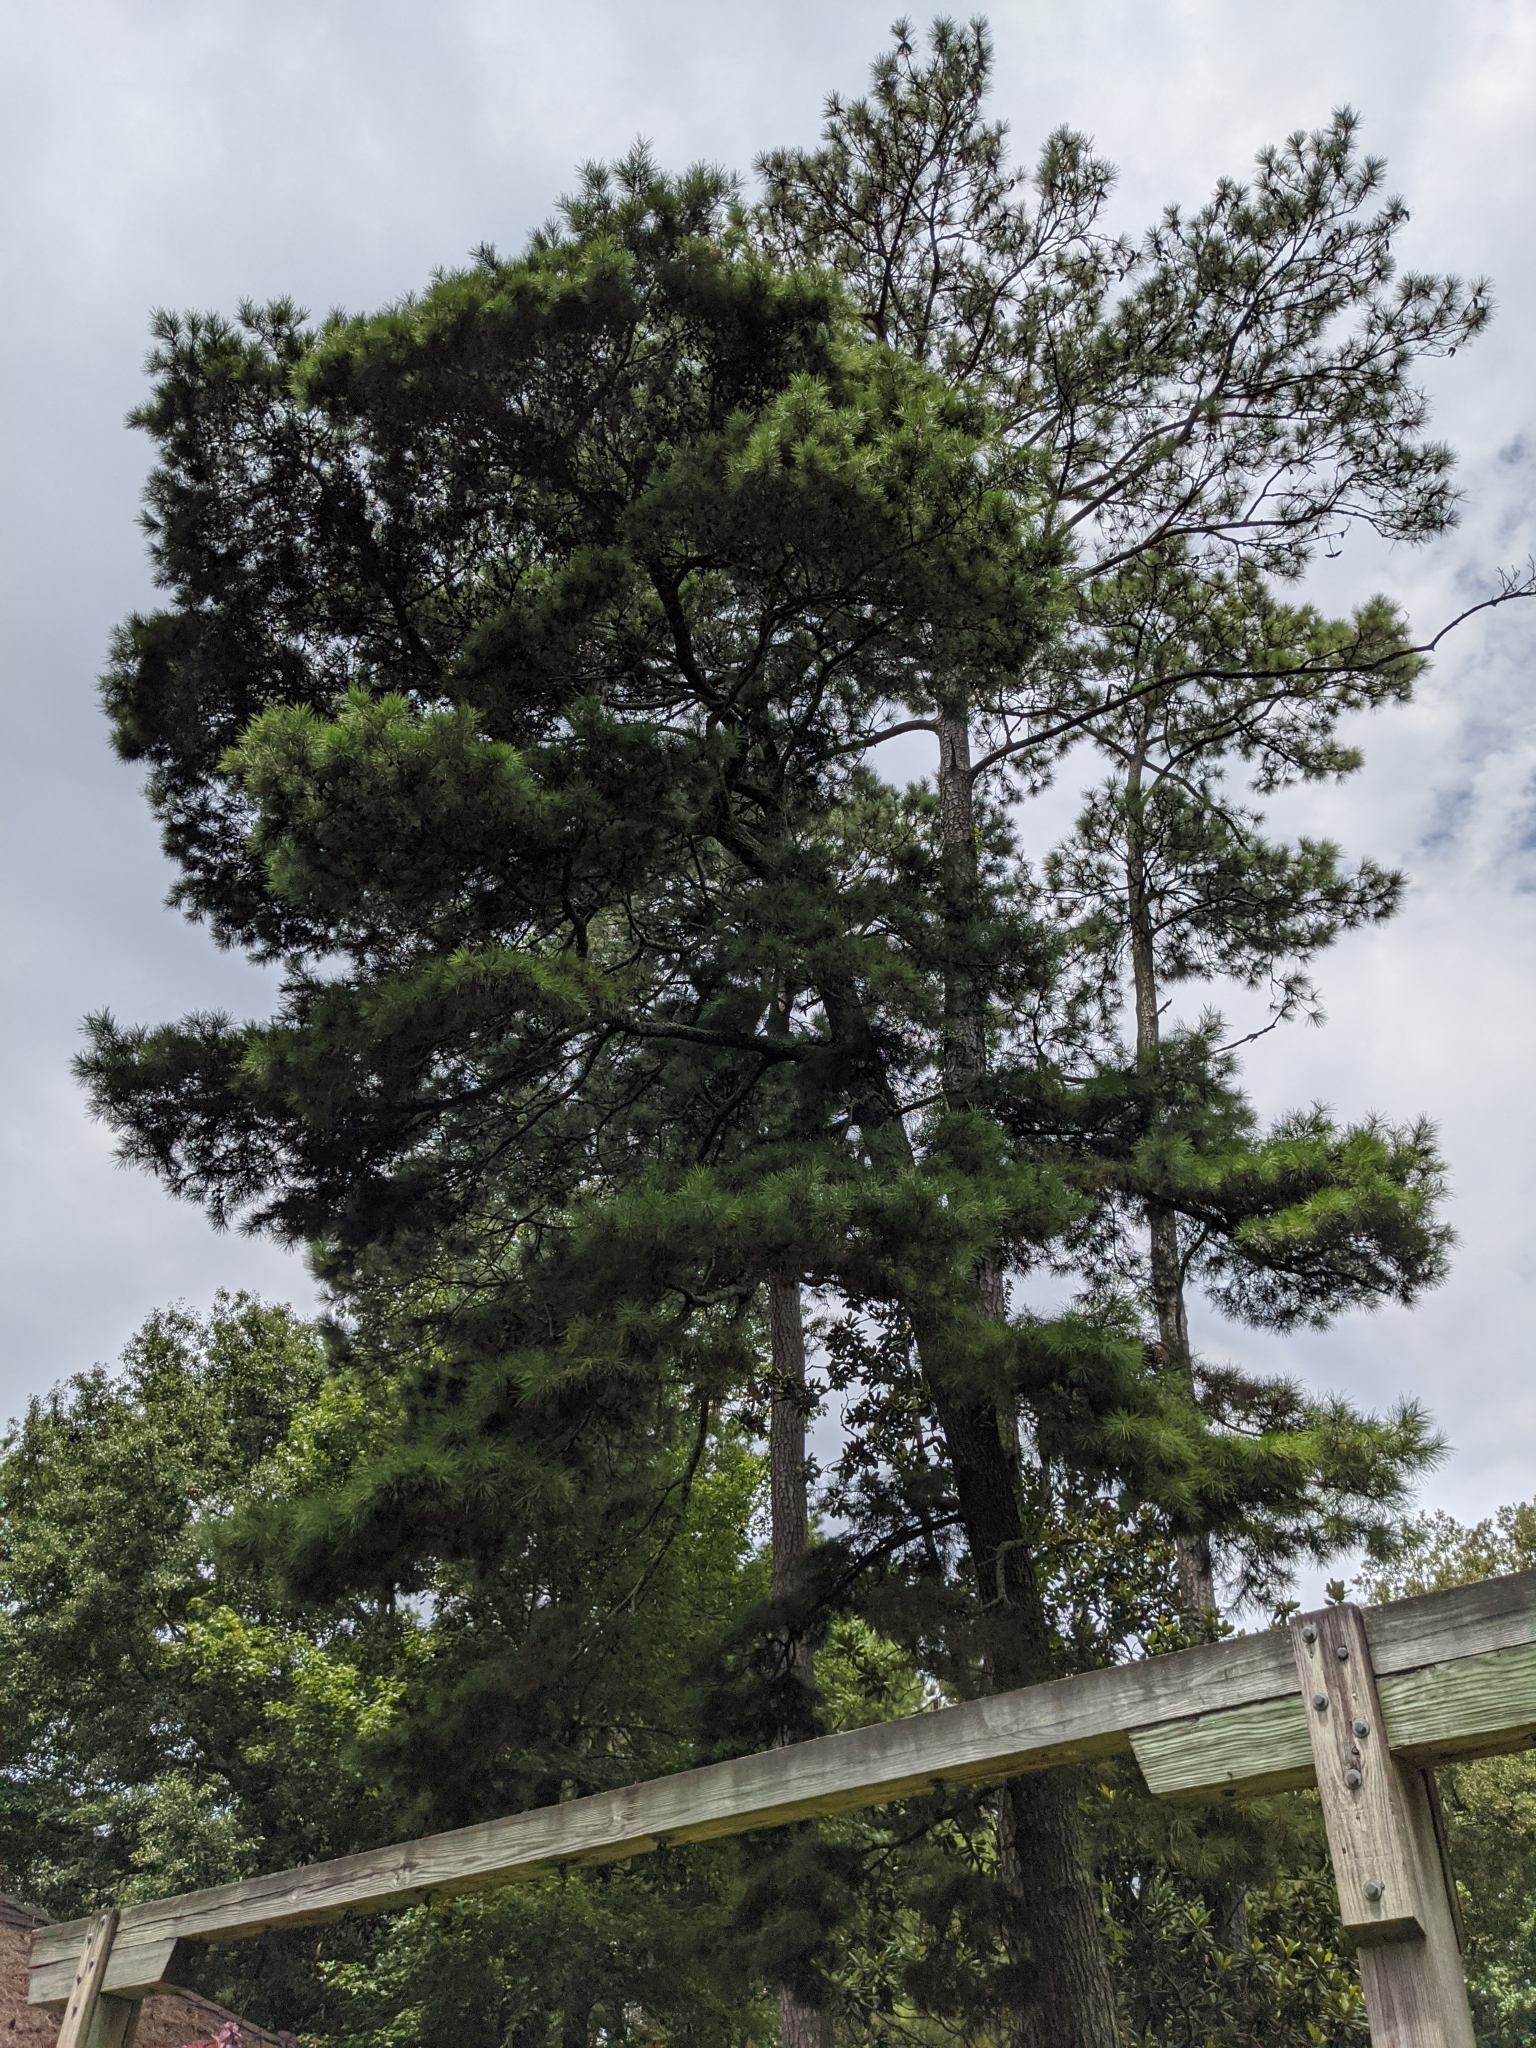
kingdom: Plantae
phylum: Tracheophyta
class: Pinopsida
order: Pinales
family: Pinaceae
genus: Pinus
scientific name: Pinus glabra
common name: Spruce pine
